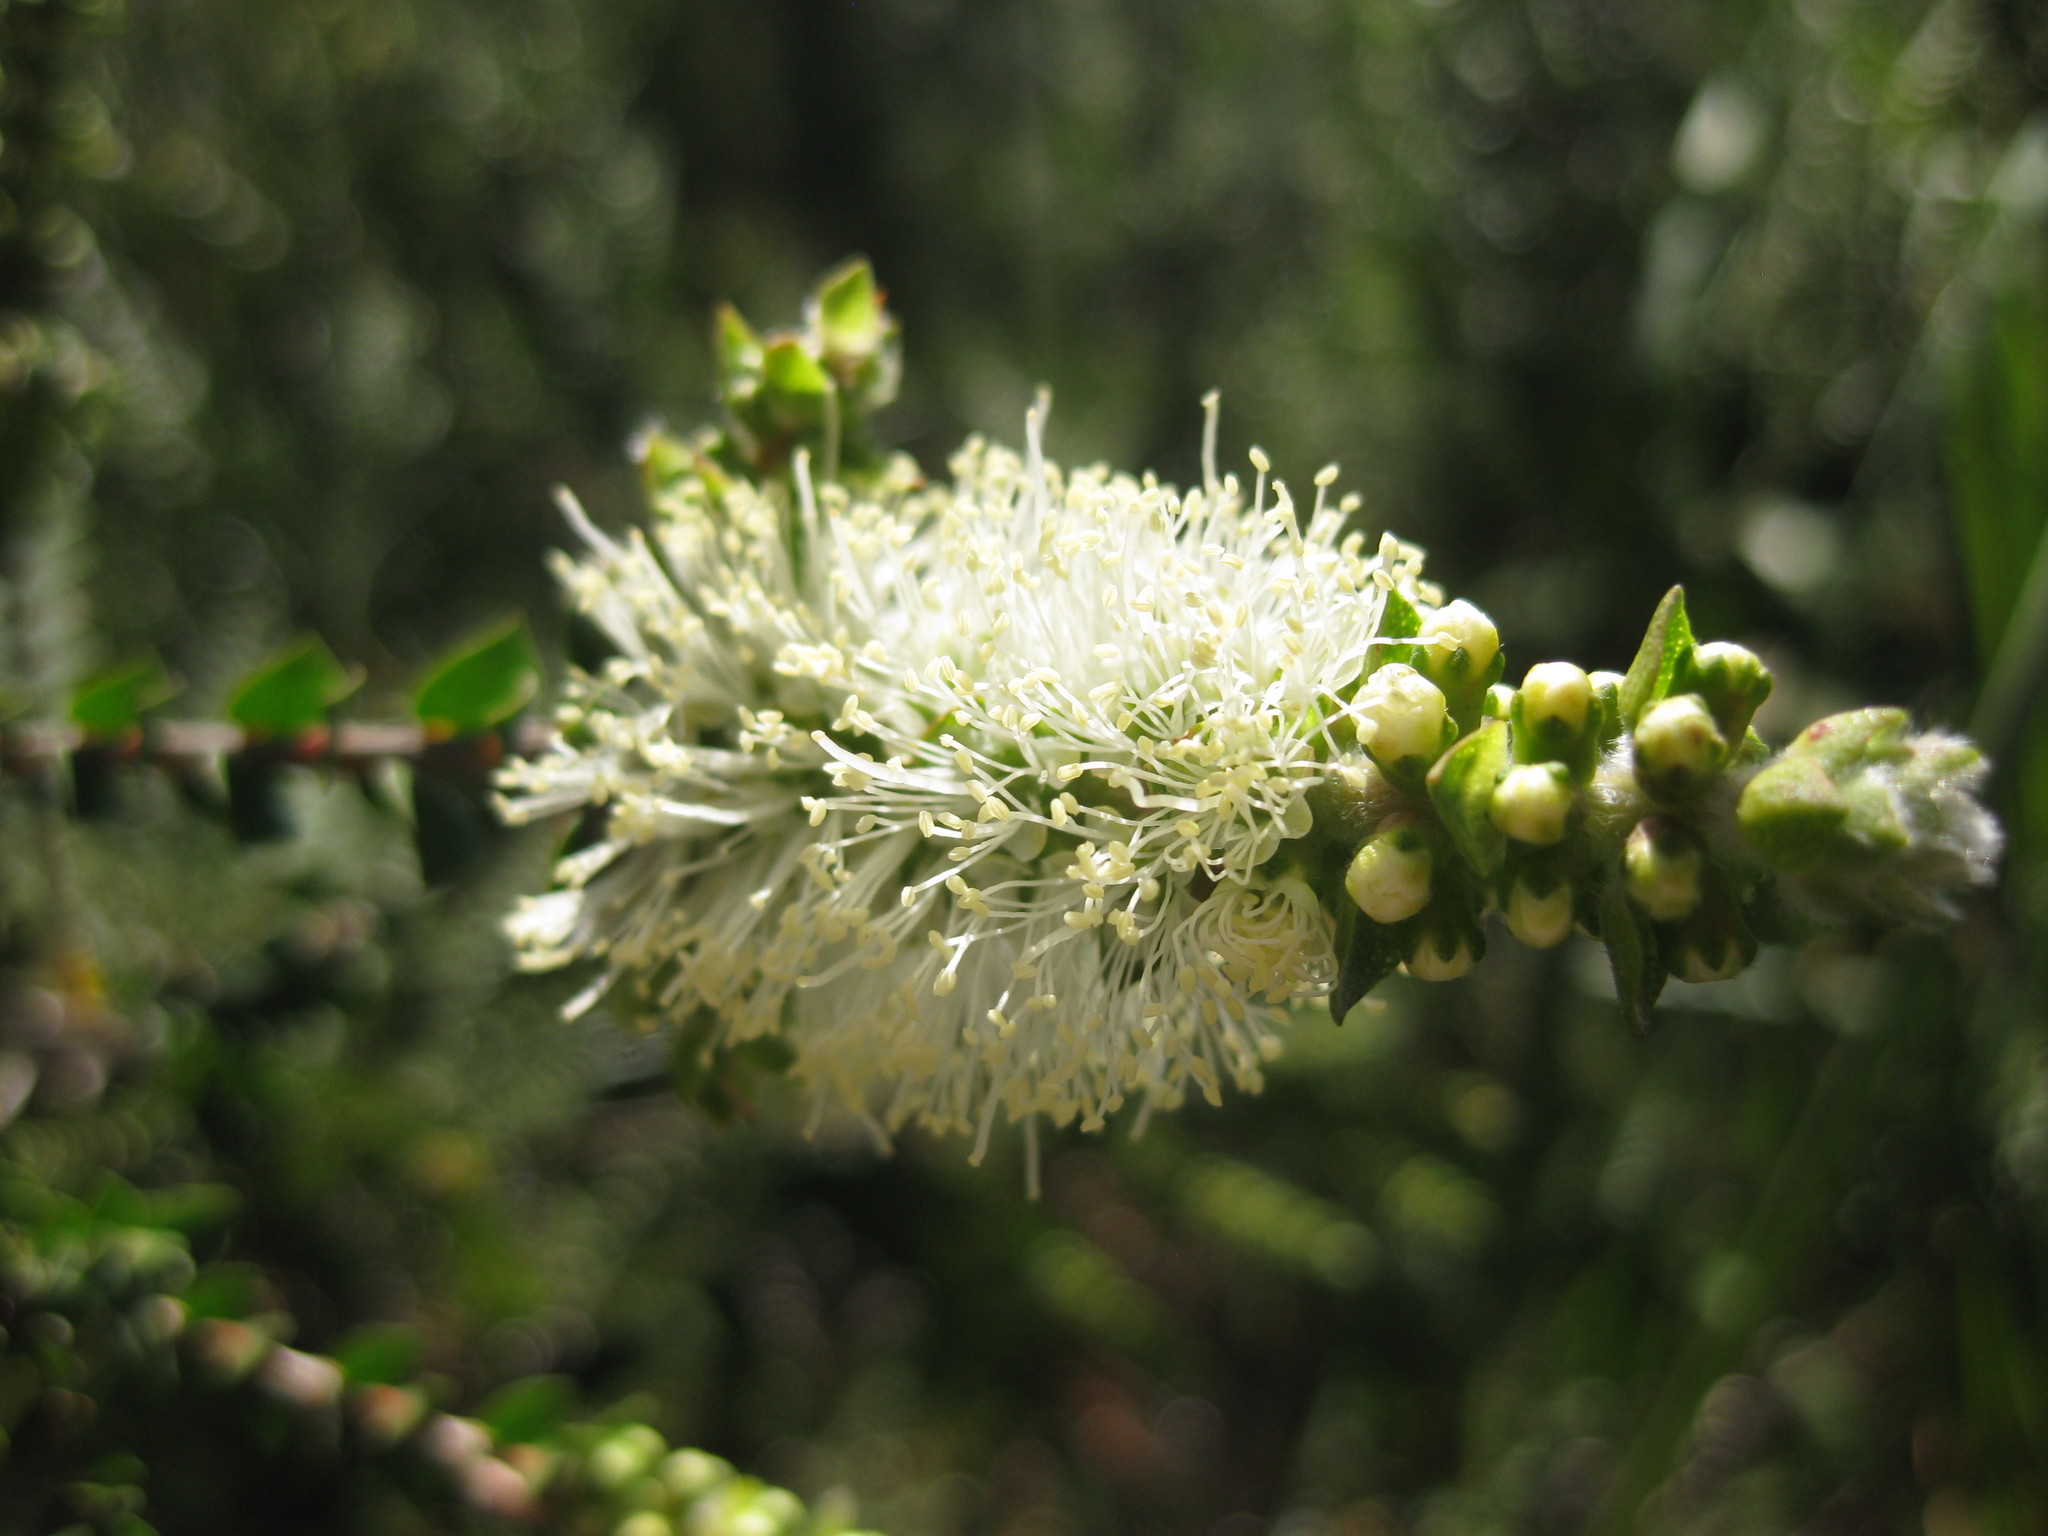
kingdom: Plantae
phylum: Tracheophyta
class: Magnoliopsida
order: Myrtales
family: Myrtaceae
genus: Melaleuca
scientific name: Melaleuca squarrosa
